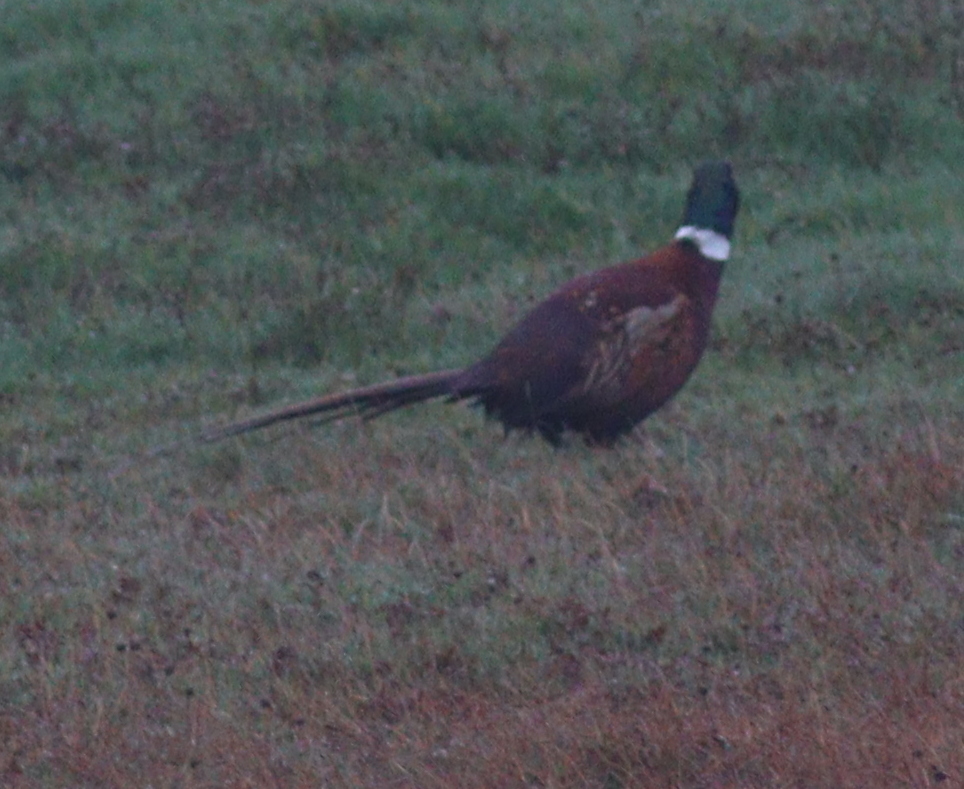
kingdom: Animalia
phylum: Chordata
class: Aves
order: Galliformes
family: Phasianidae
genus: Phasianus
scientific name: Phasianus colchicus
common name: Common pheasant
